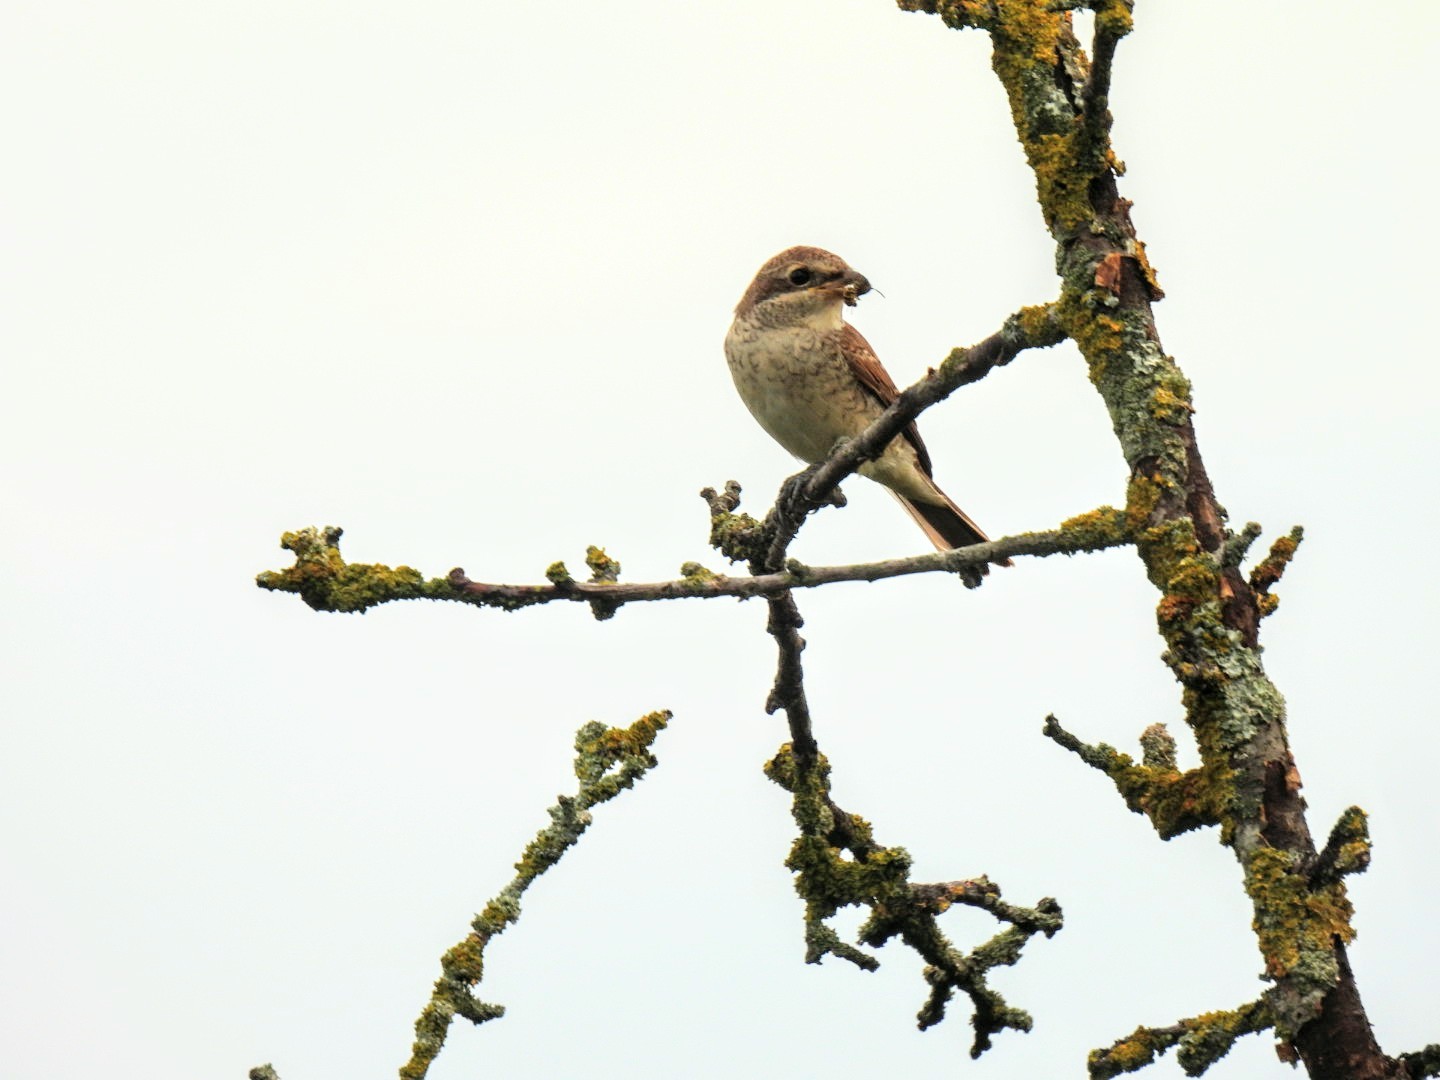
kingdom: Animalia
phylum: Chordata
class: Aves
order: Passeriformes
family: Laniidae
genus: Lanius
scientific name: Lanius collurio
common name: Red-backed shrike
